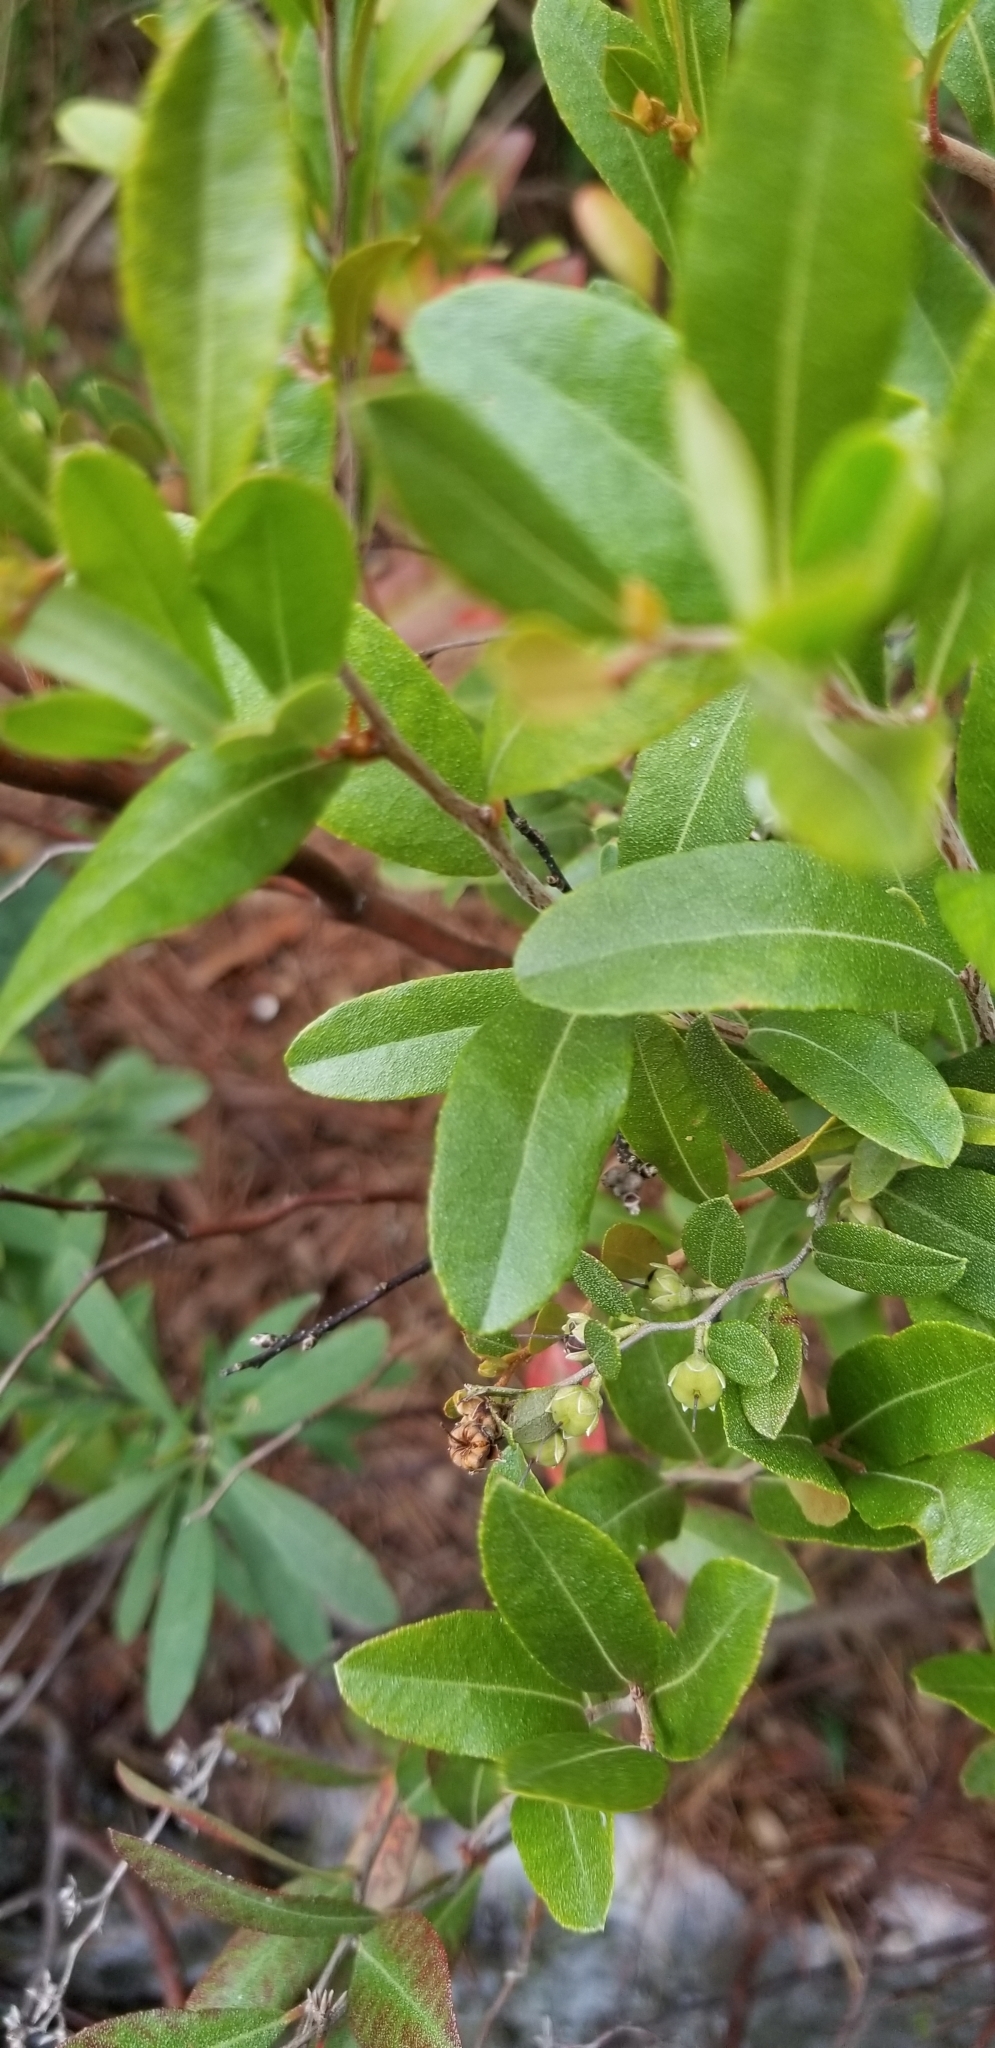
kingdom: Plantae
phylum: Tracheophyta
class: Magnoliopsida
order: Ericales
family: Ericaceae
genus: Chamaedaphne
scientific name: Chamaedaphne calyculata
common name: Leatherleaf
